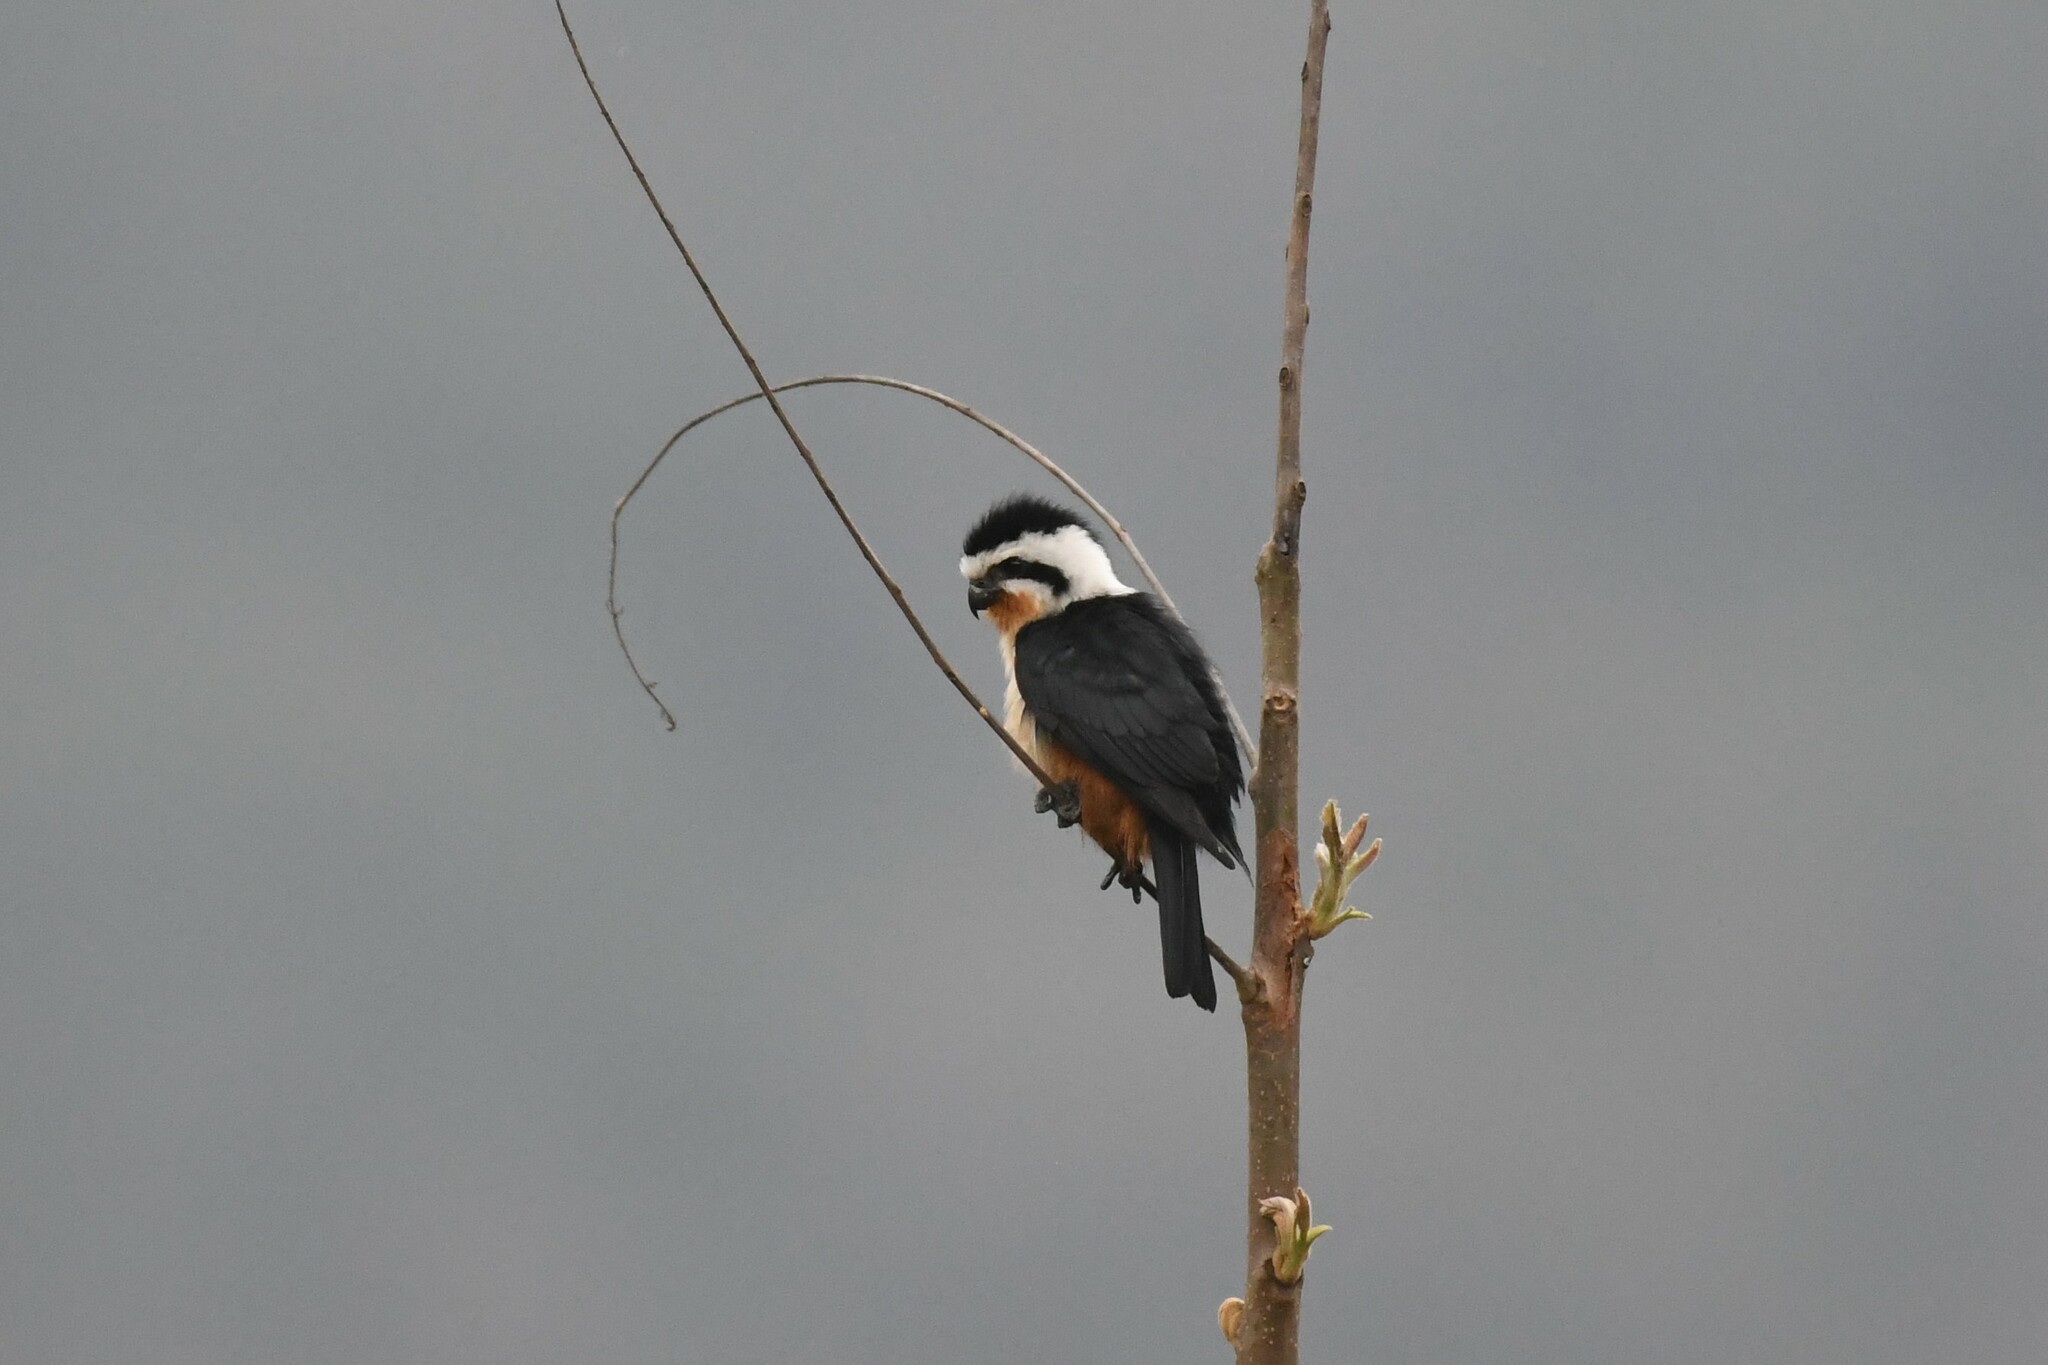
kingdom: Animalia
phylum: Chordata
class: Aves
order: Falconiformes
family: Falconidae
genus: Microhierax
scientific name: Microhierax caerulescens
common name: Collared falconet
